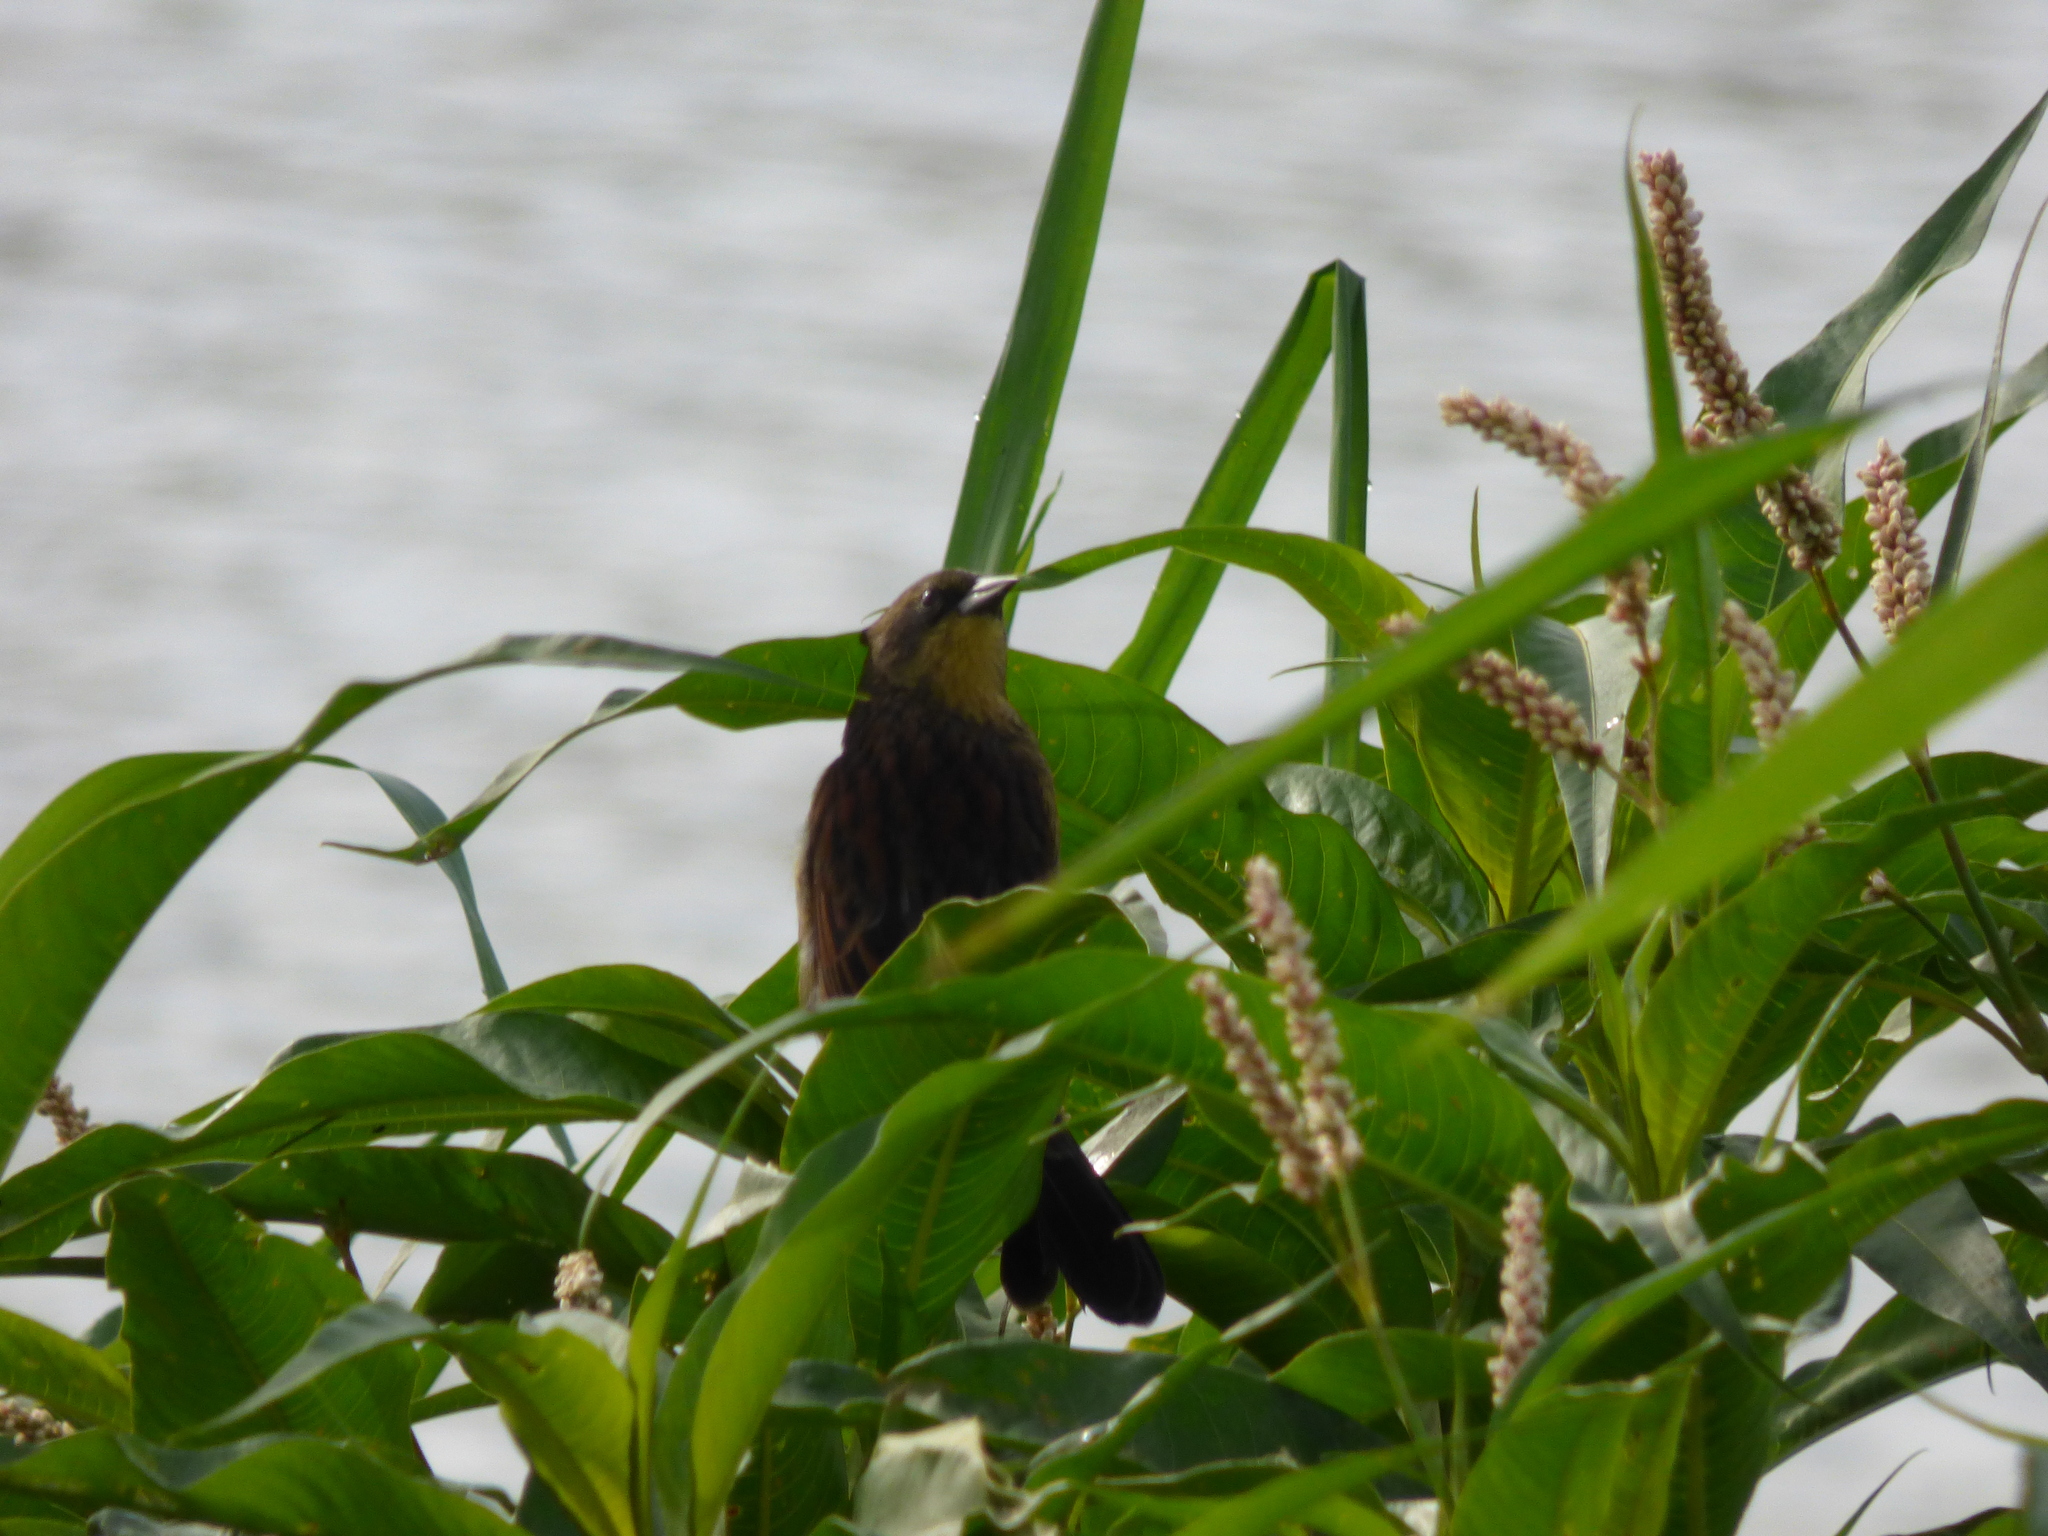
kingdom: Animalia
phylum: Chordata
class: Aves
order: Passeriformes
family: Icteridae
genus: Agelasticus
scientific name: Agelasticus cyanopus
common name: Unicolored blackbird
